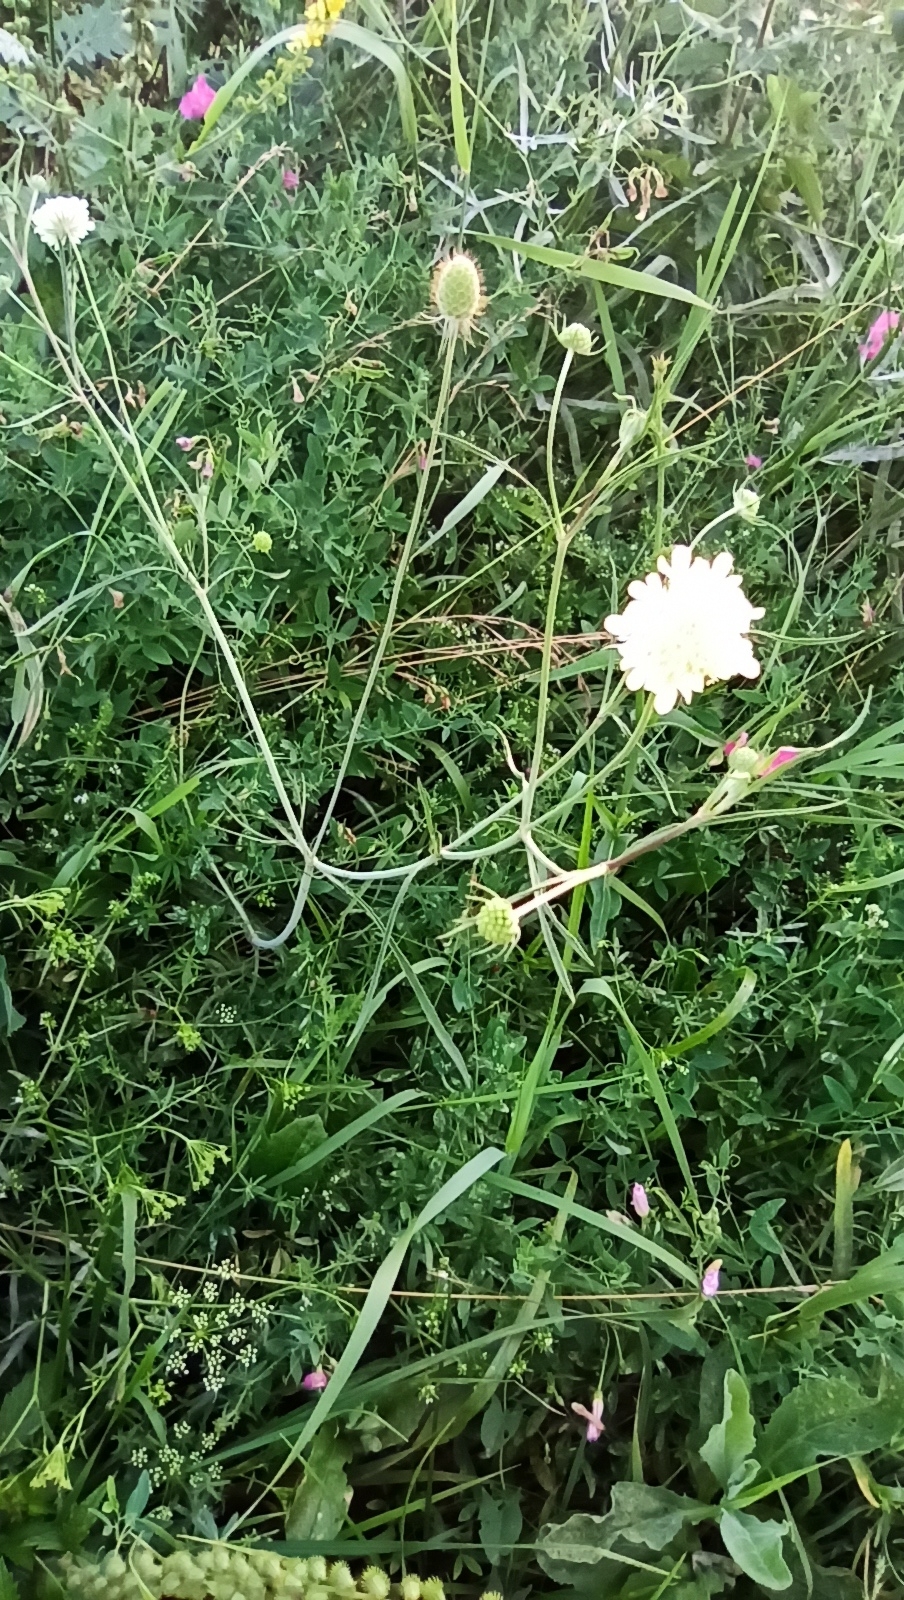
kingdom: Plantae
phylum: Tracheophyta
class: Magnoliopsida
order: Dipsacales
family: Caprifoliaceae
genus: Scabiosa
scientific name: Scabiosa ochroleuca
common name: Cream pincushions
